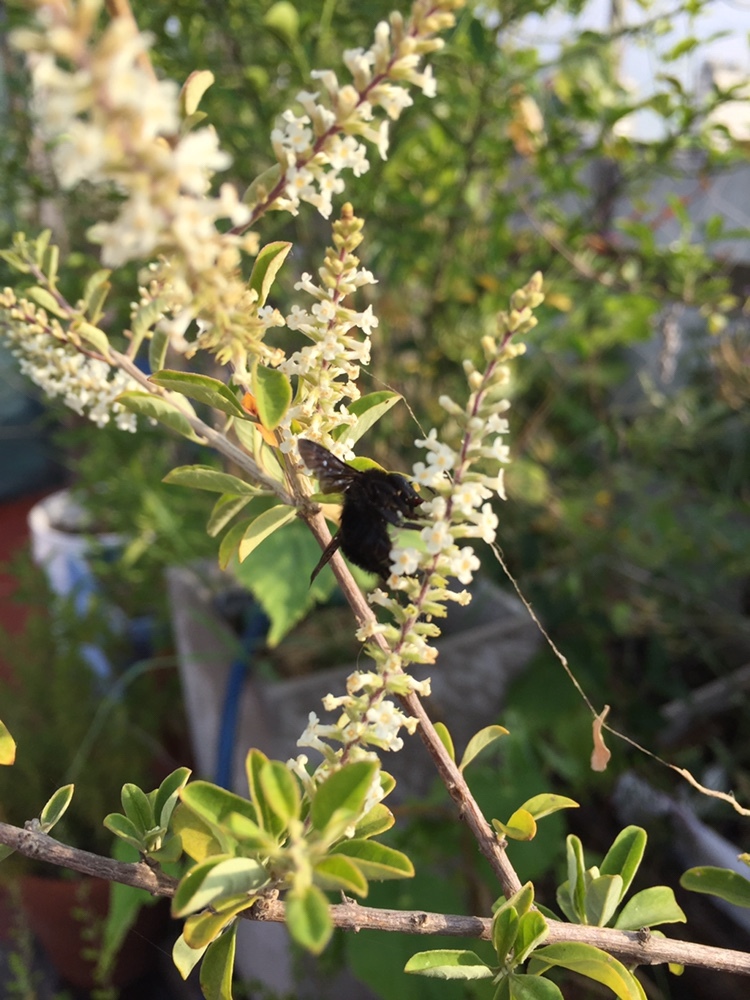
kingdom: Animalia
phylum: Arthropoda
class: Insecta
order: Hymenoptera
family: Apidae
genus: Bombus
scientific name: Bombus pauloensis
